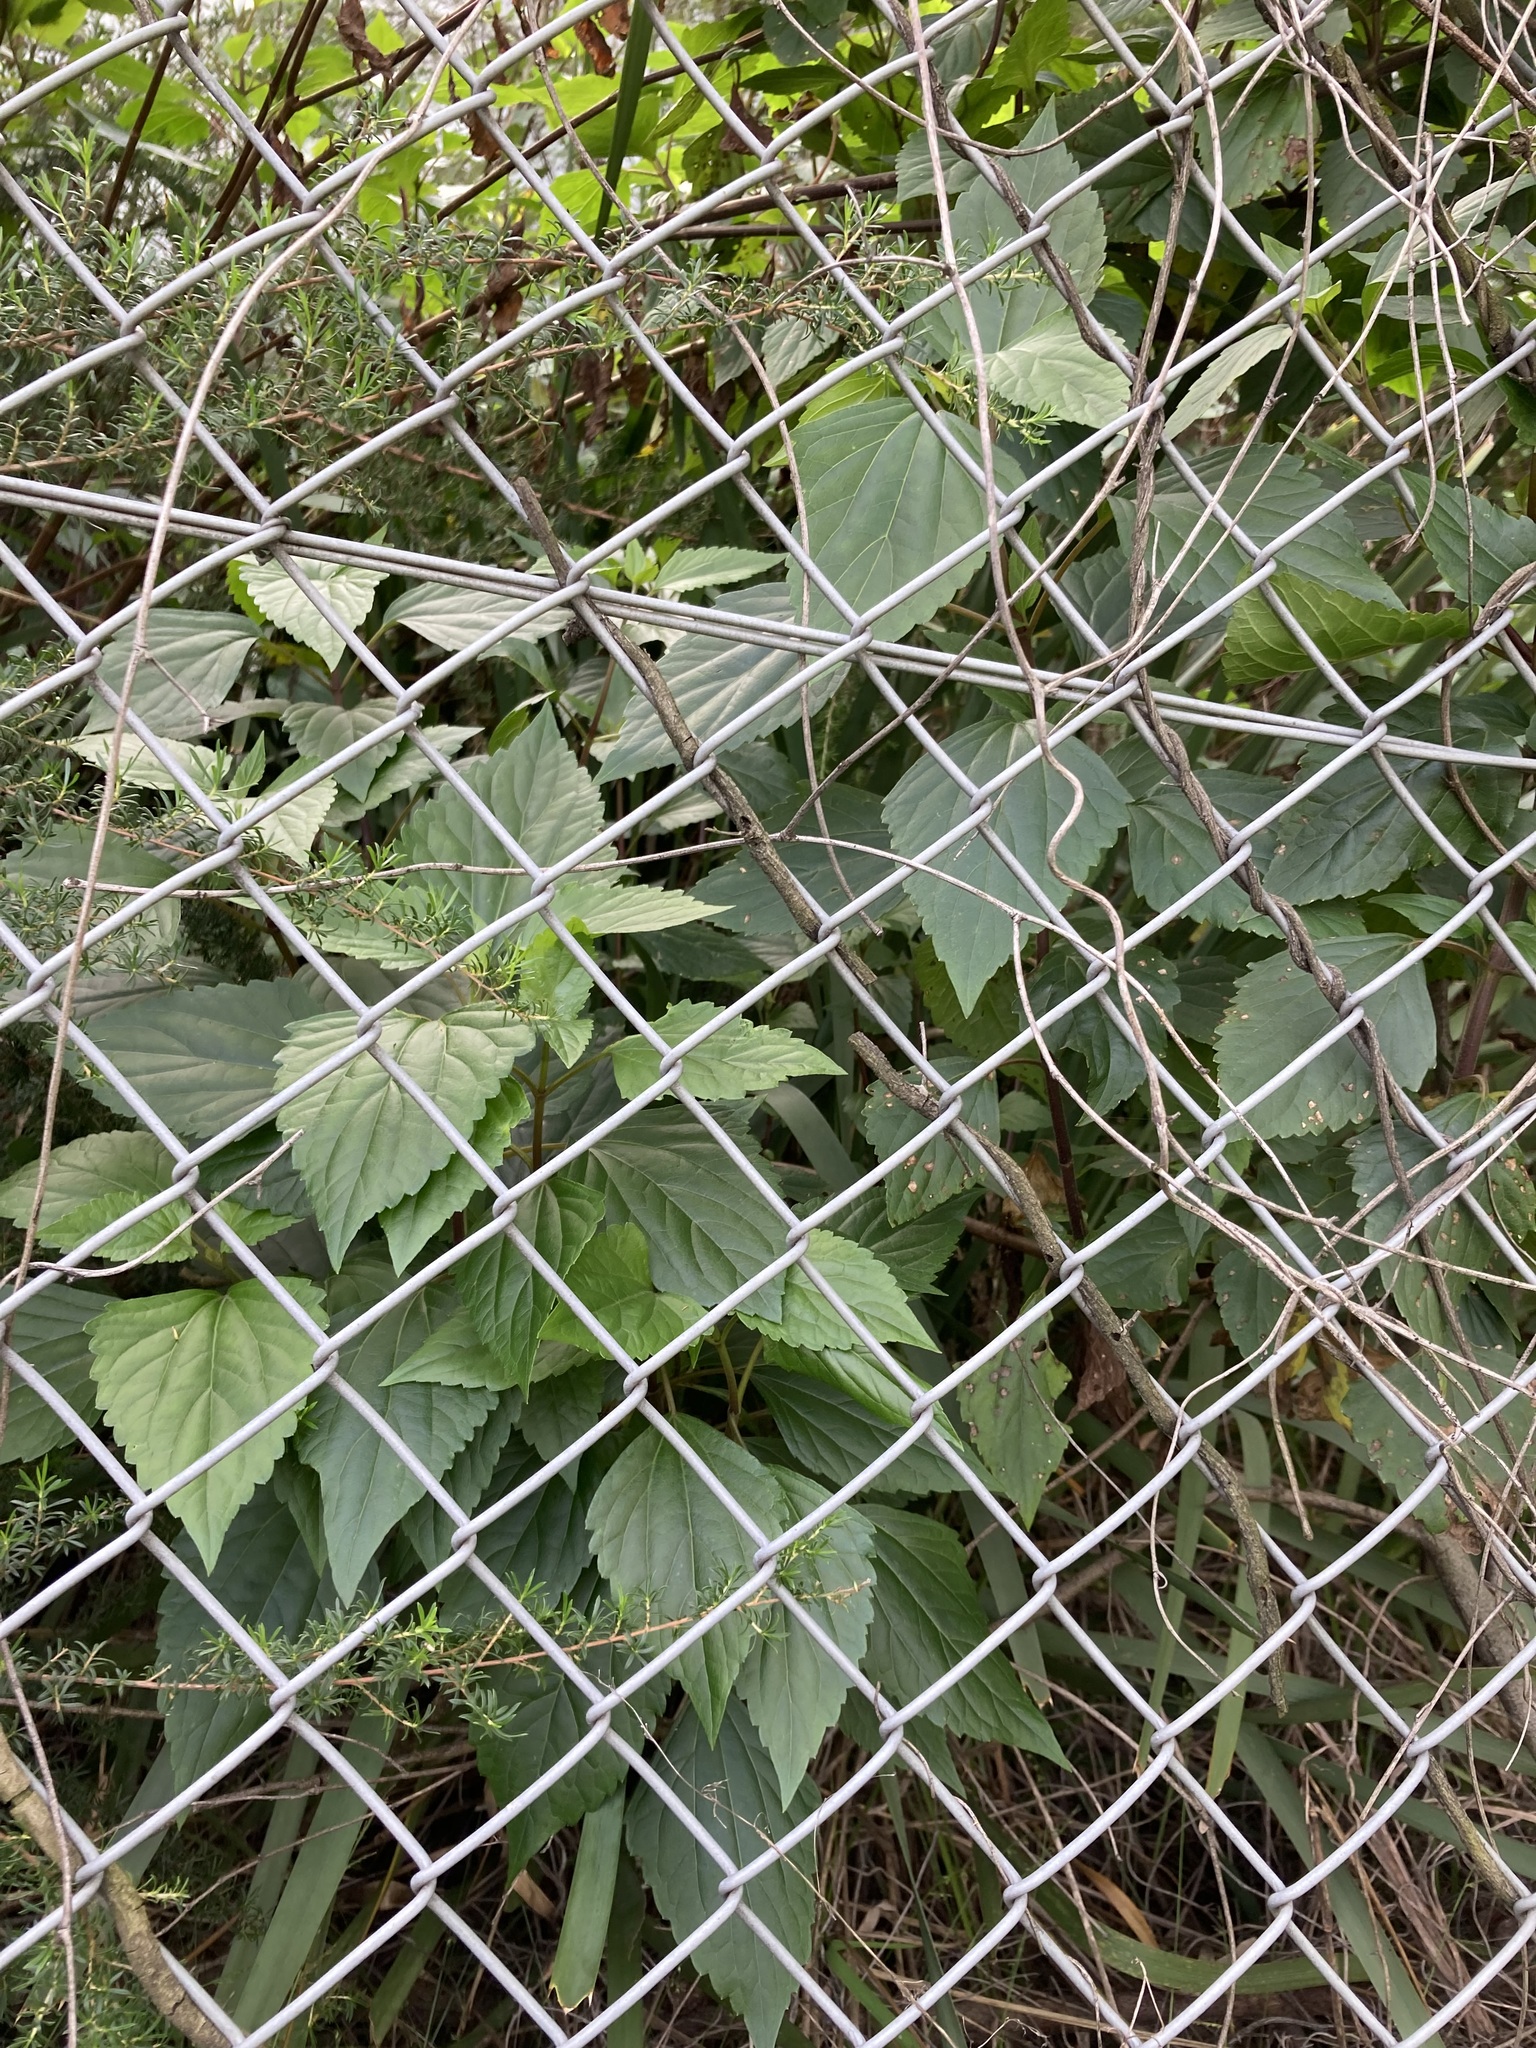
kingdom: Plantae
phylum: Tracheophyta
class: Magnoliopsida
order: Asterales
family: Asteraceae
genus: Ageratina
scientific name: Ageratina adenophora
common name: Sticky snakeroot
